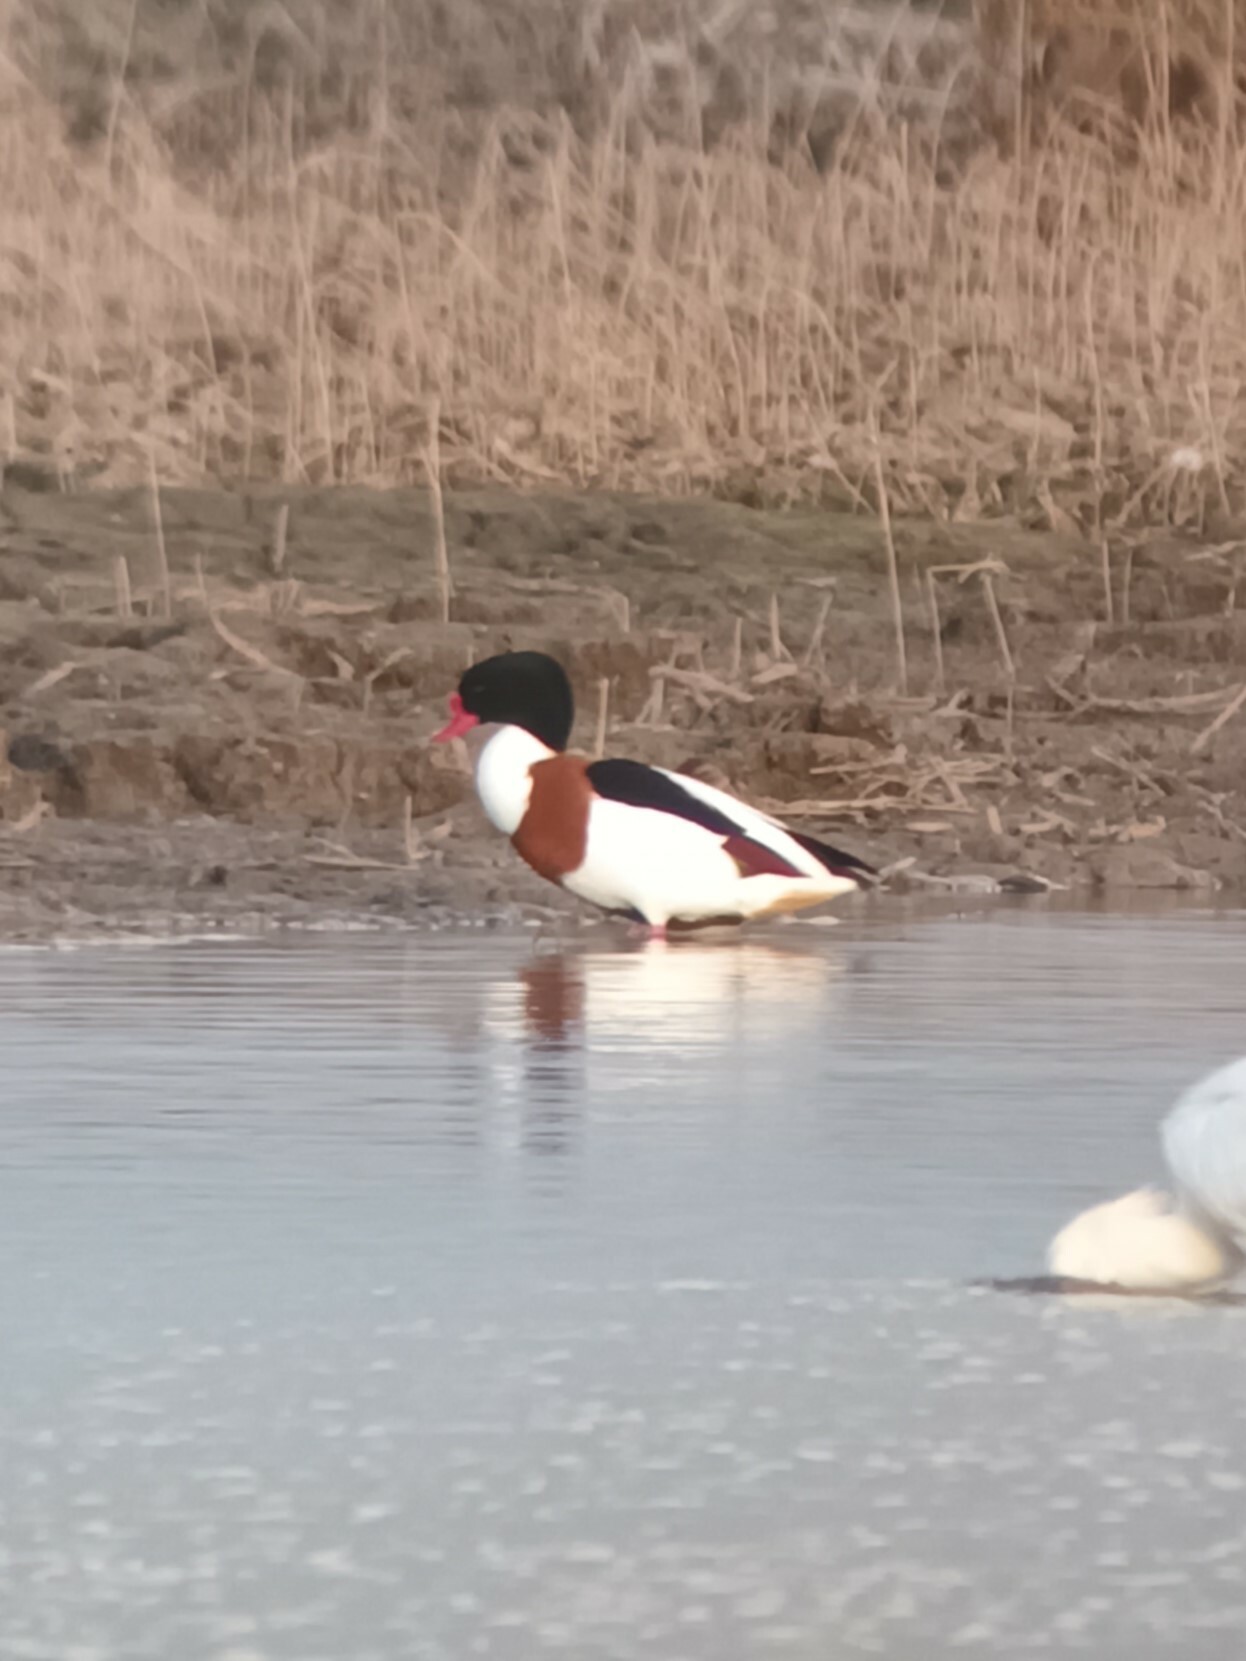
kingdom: Animalia
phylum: Chordata
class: Aves
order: Anseriformes
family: Anatidae
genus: Tadorna
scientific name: Tadorna tadorna
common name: Common shelduck
